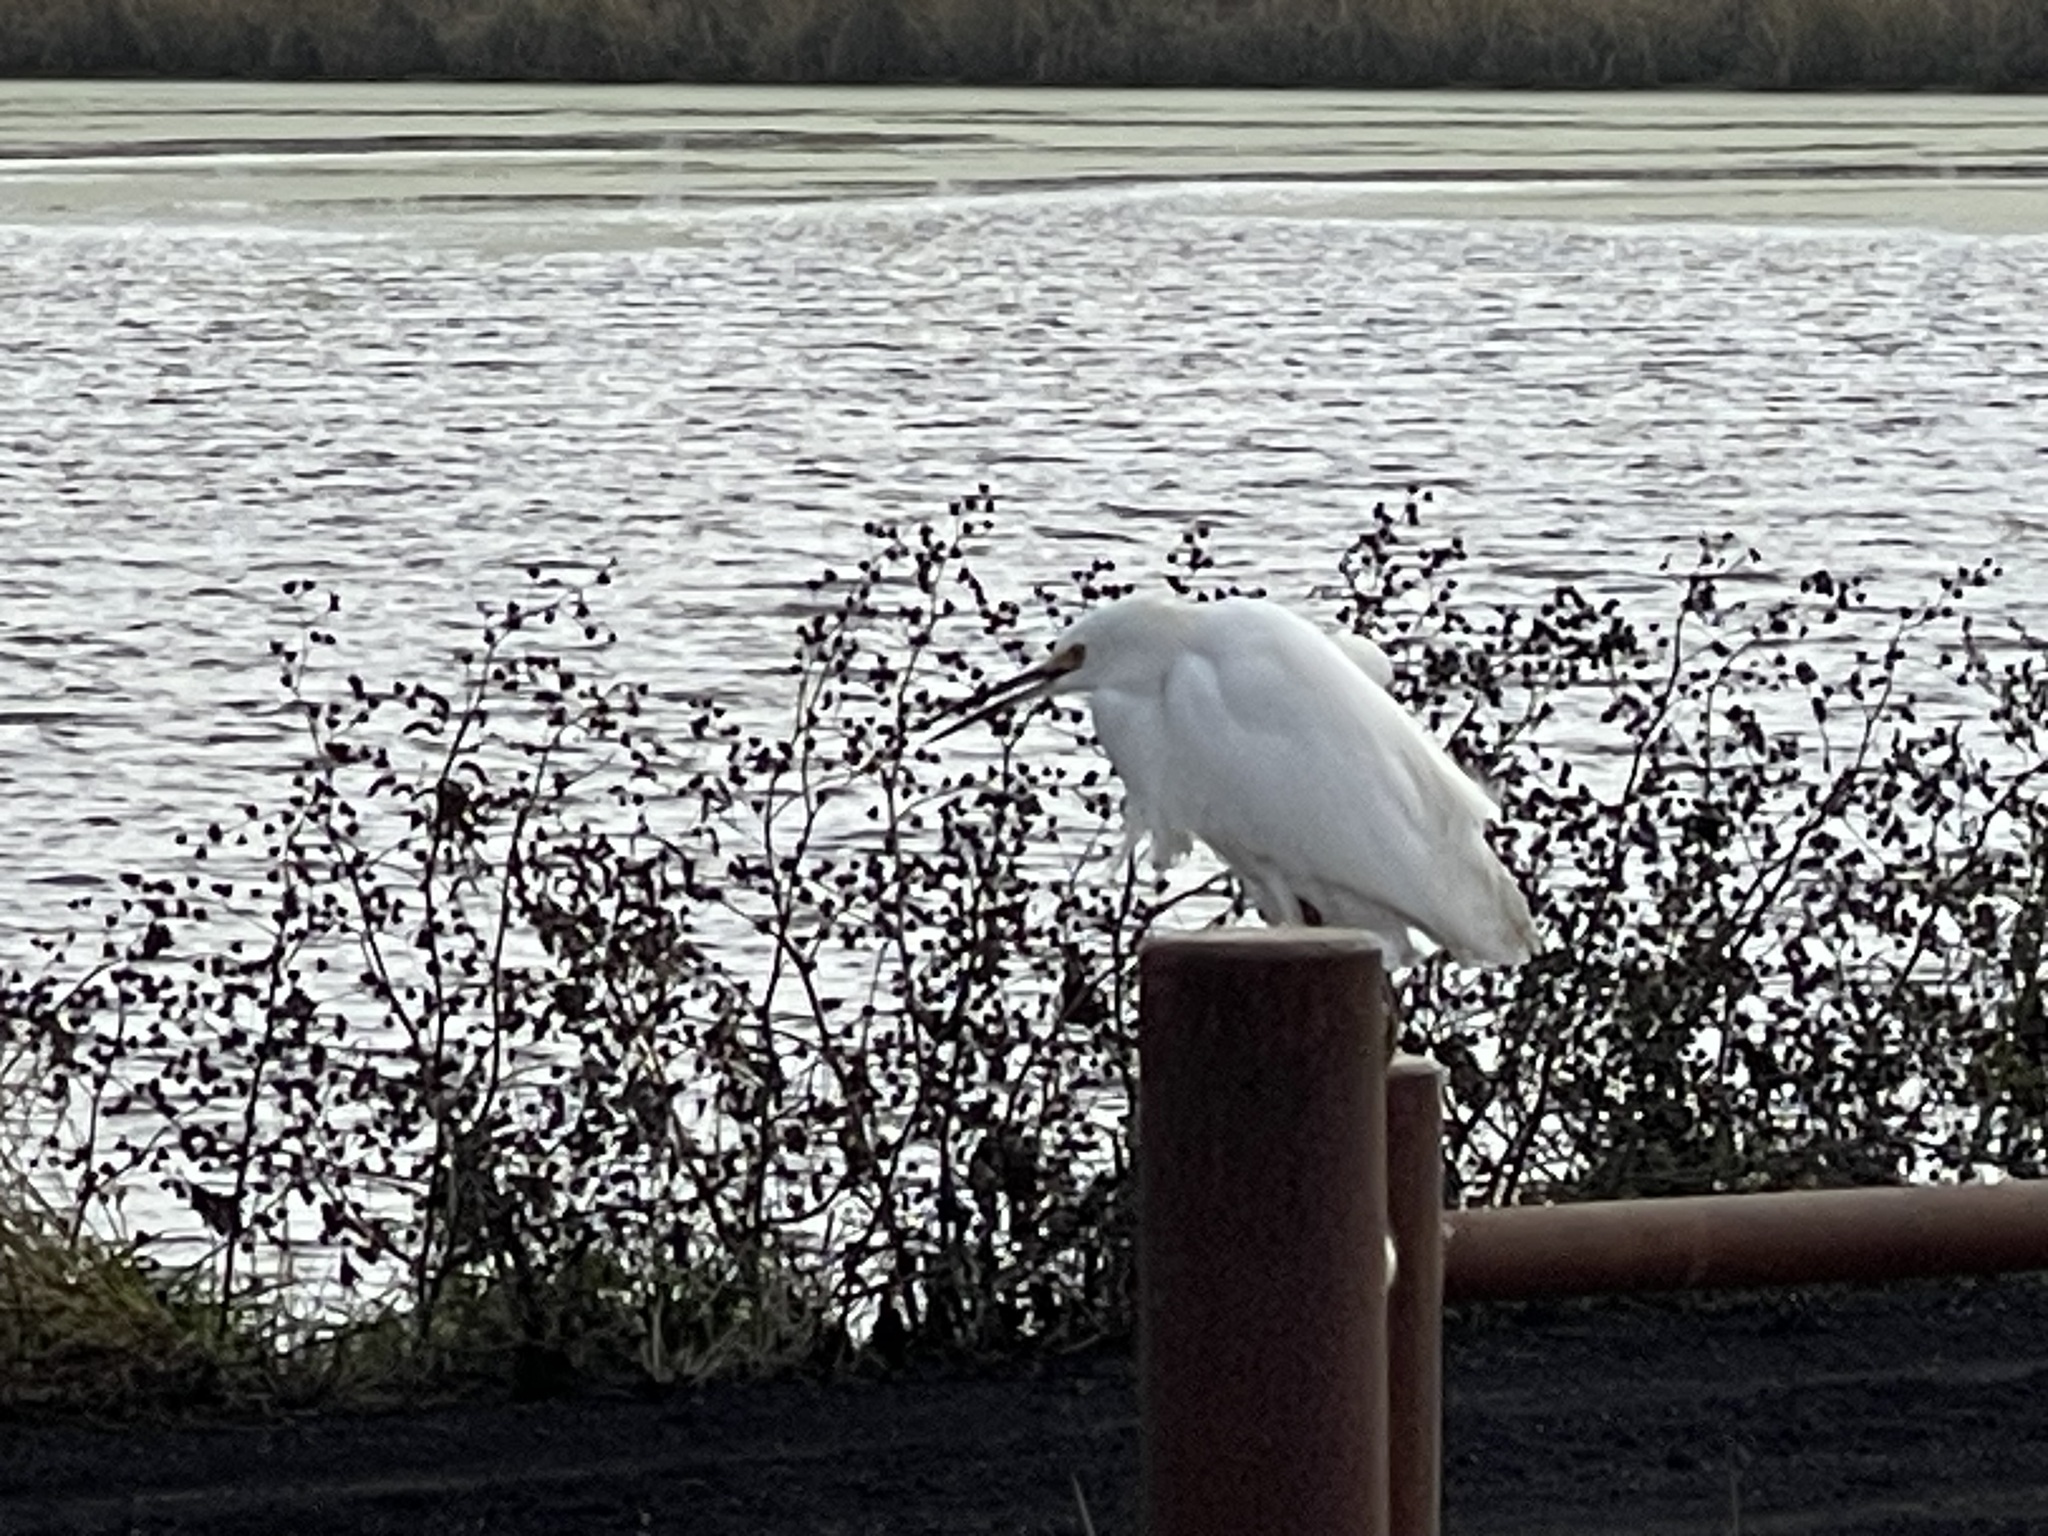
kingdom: Animalia
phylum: Chordata
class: Aves
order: Pelecaniformes
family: Ardeidae
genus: Egretta
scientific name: Egretta thula
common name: Snowy egret
